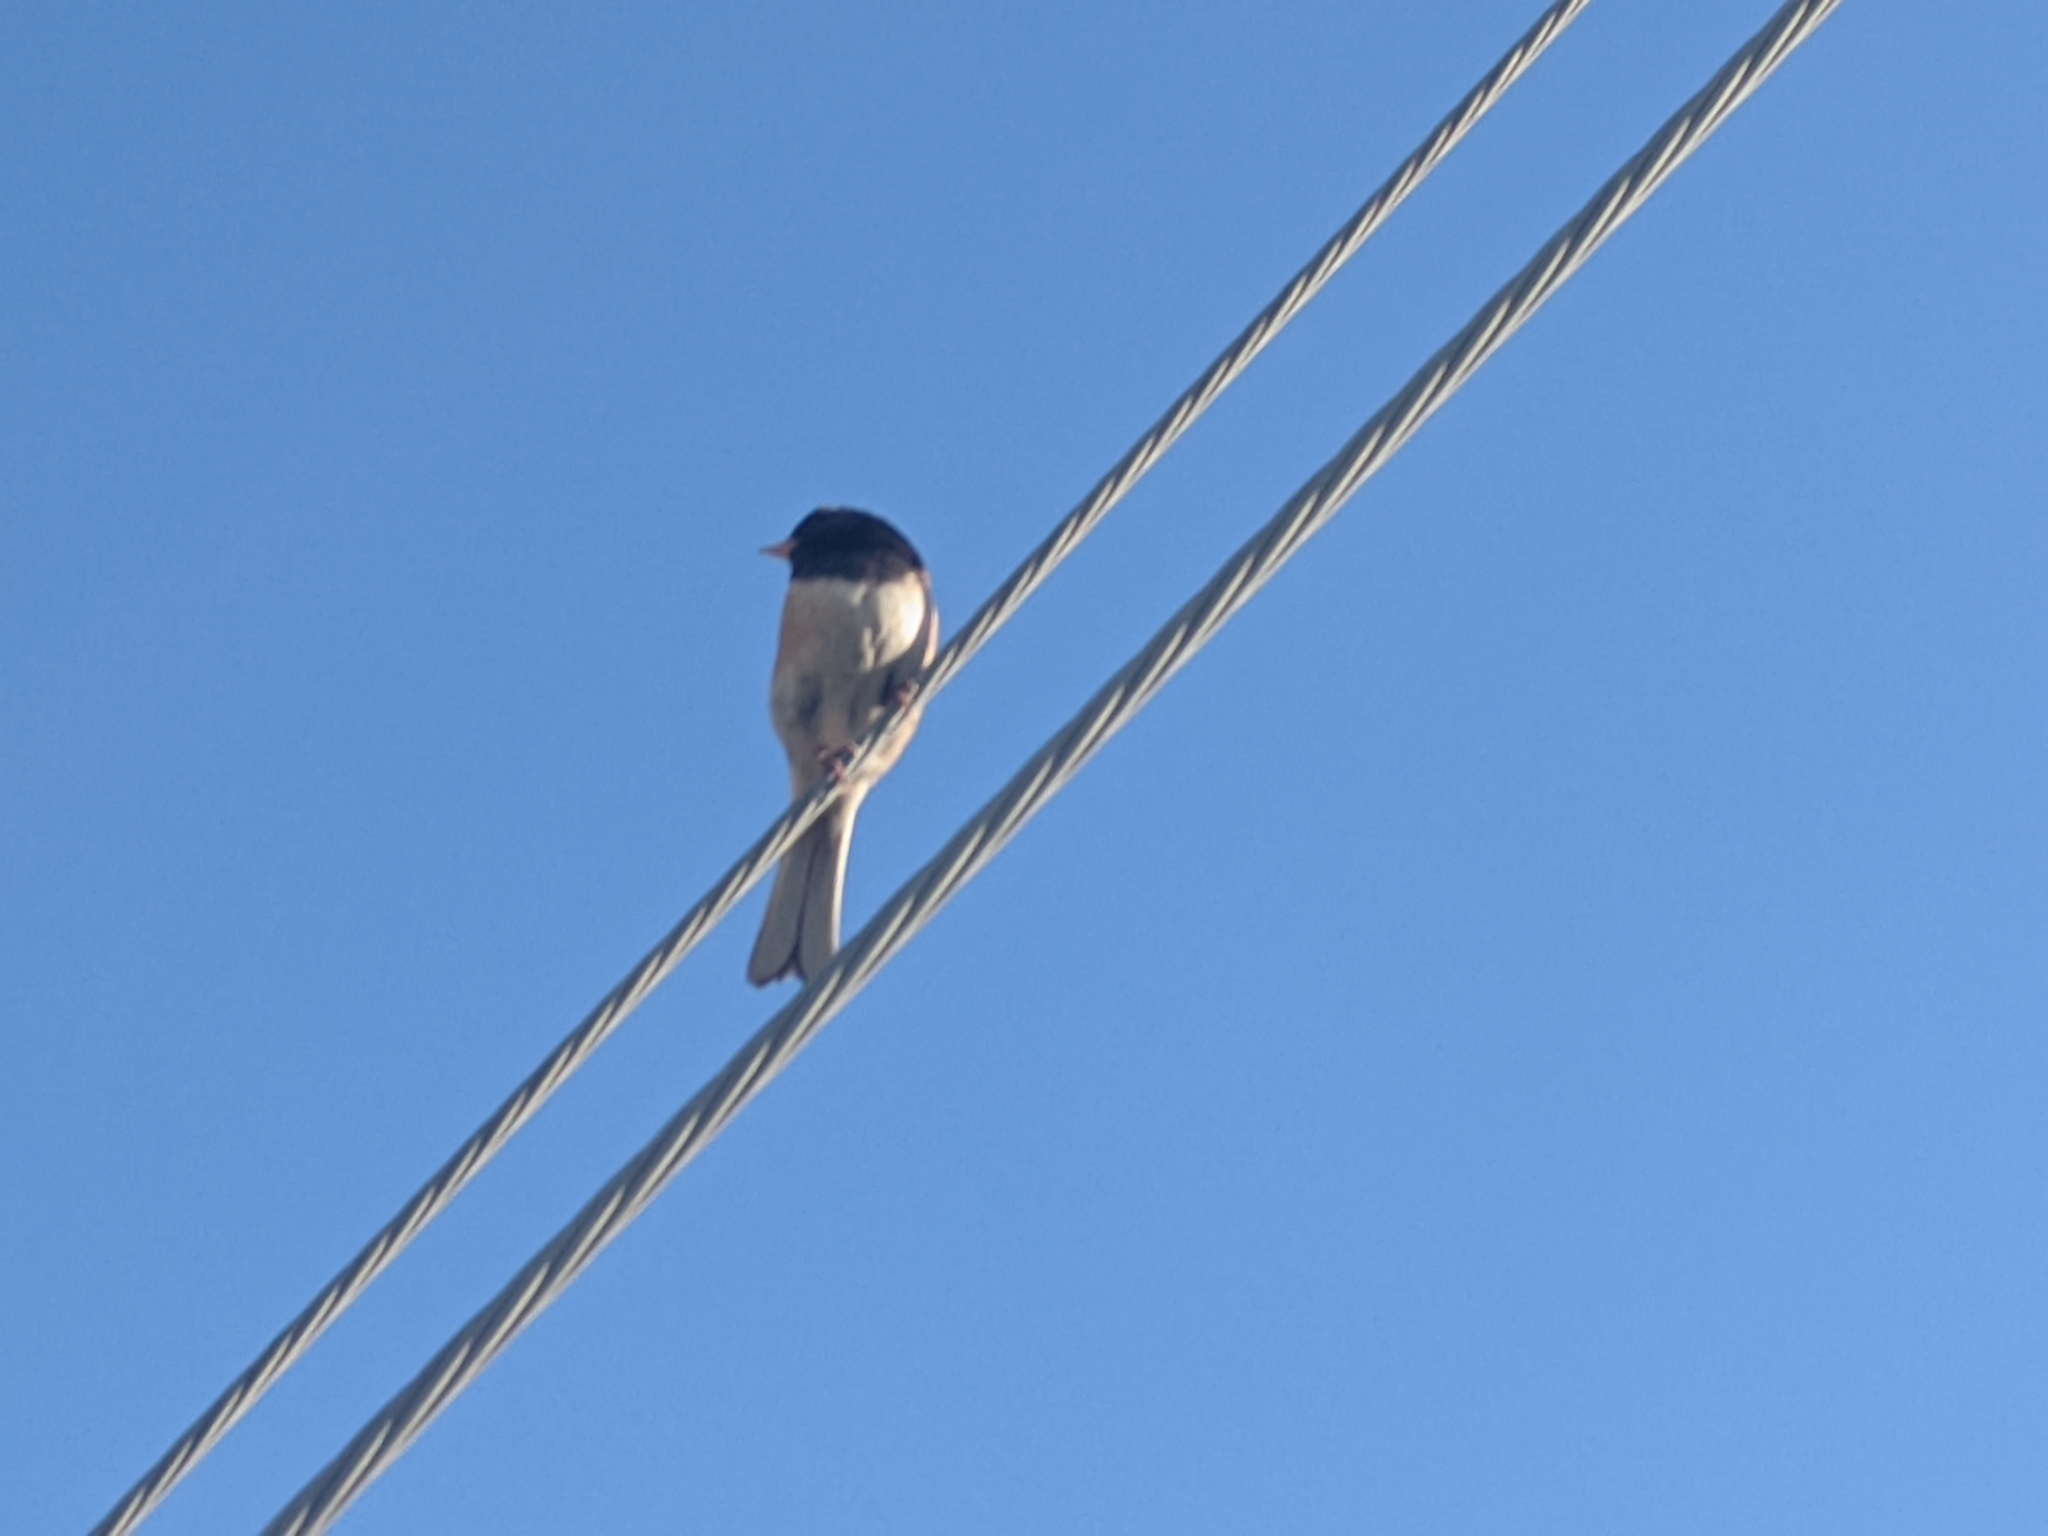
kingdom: Animalia
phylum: Chordata
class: Aves
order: Passeriformes
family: Passerellidae
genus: Junco
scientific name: Junco hyemalis
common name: Dark-eyed junco
